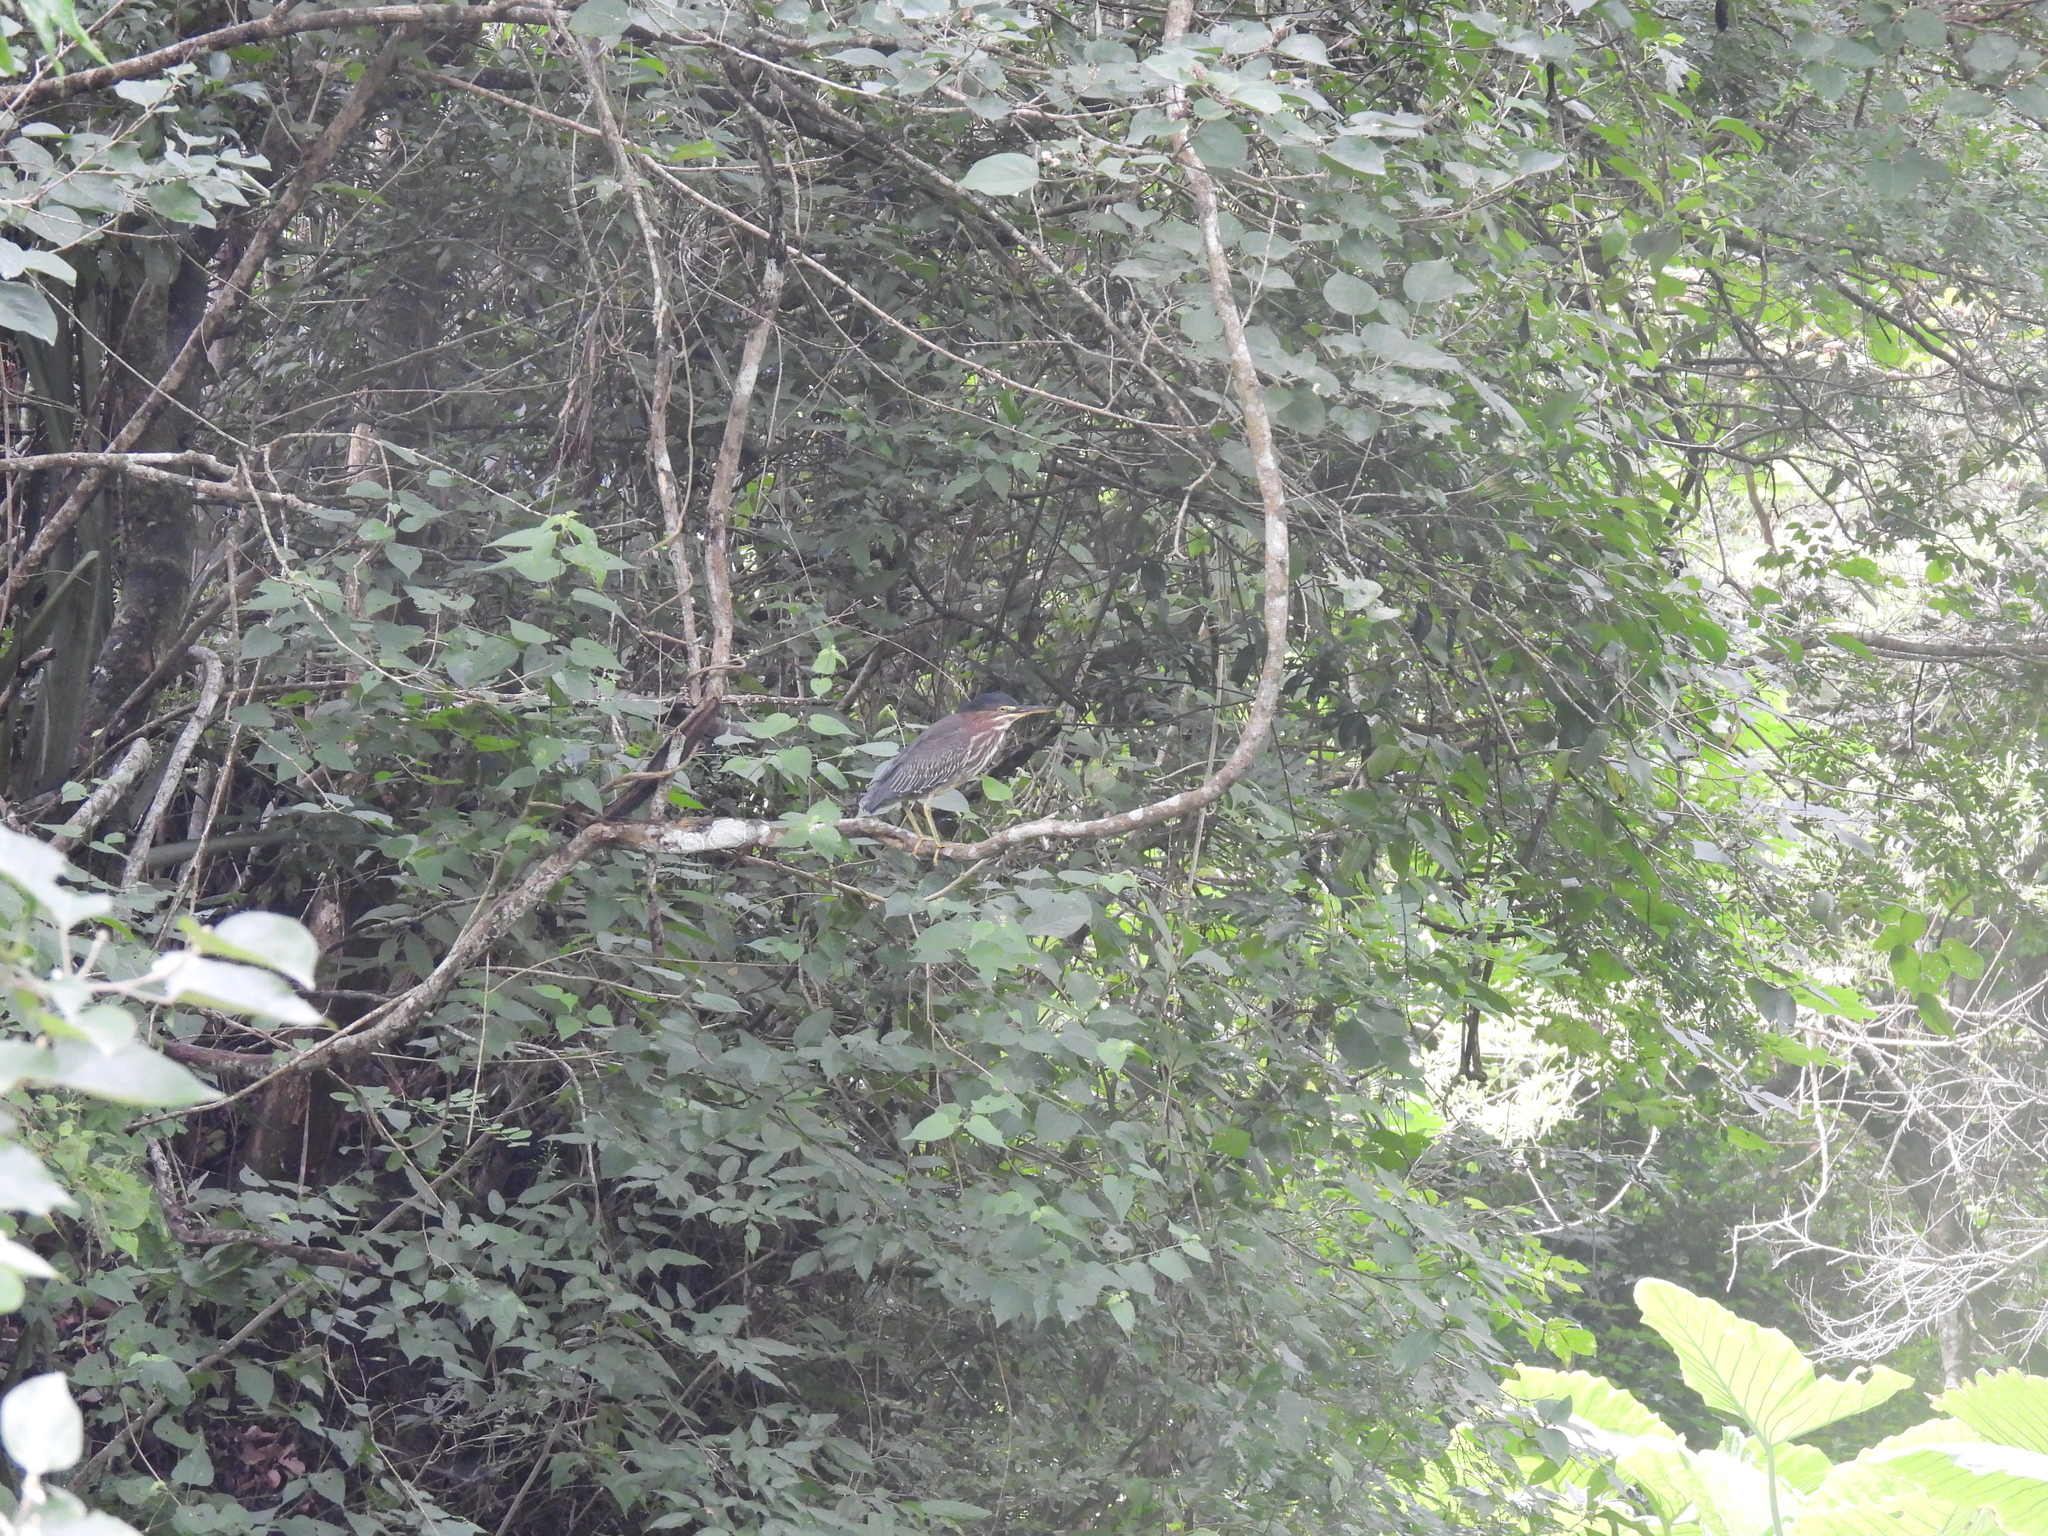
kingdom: Animalia
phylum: Chordata
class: Aves
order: Pelecaniformes
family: Ardeidae
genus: Butorides
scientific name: Butorides virescens
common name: Green heron
